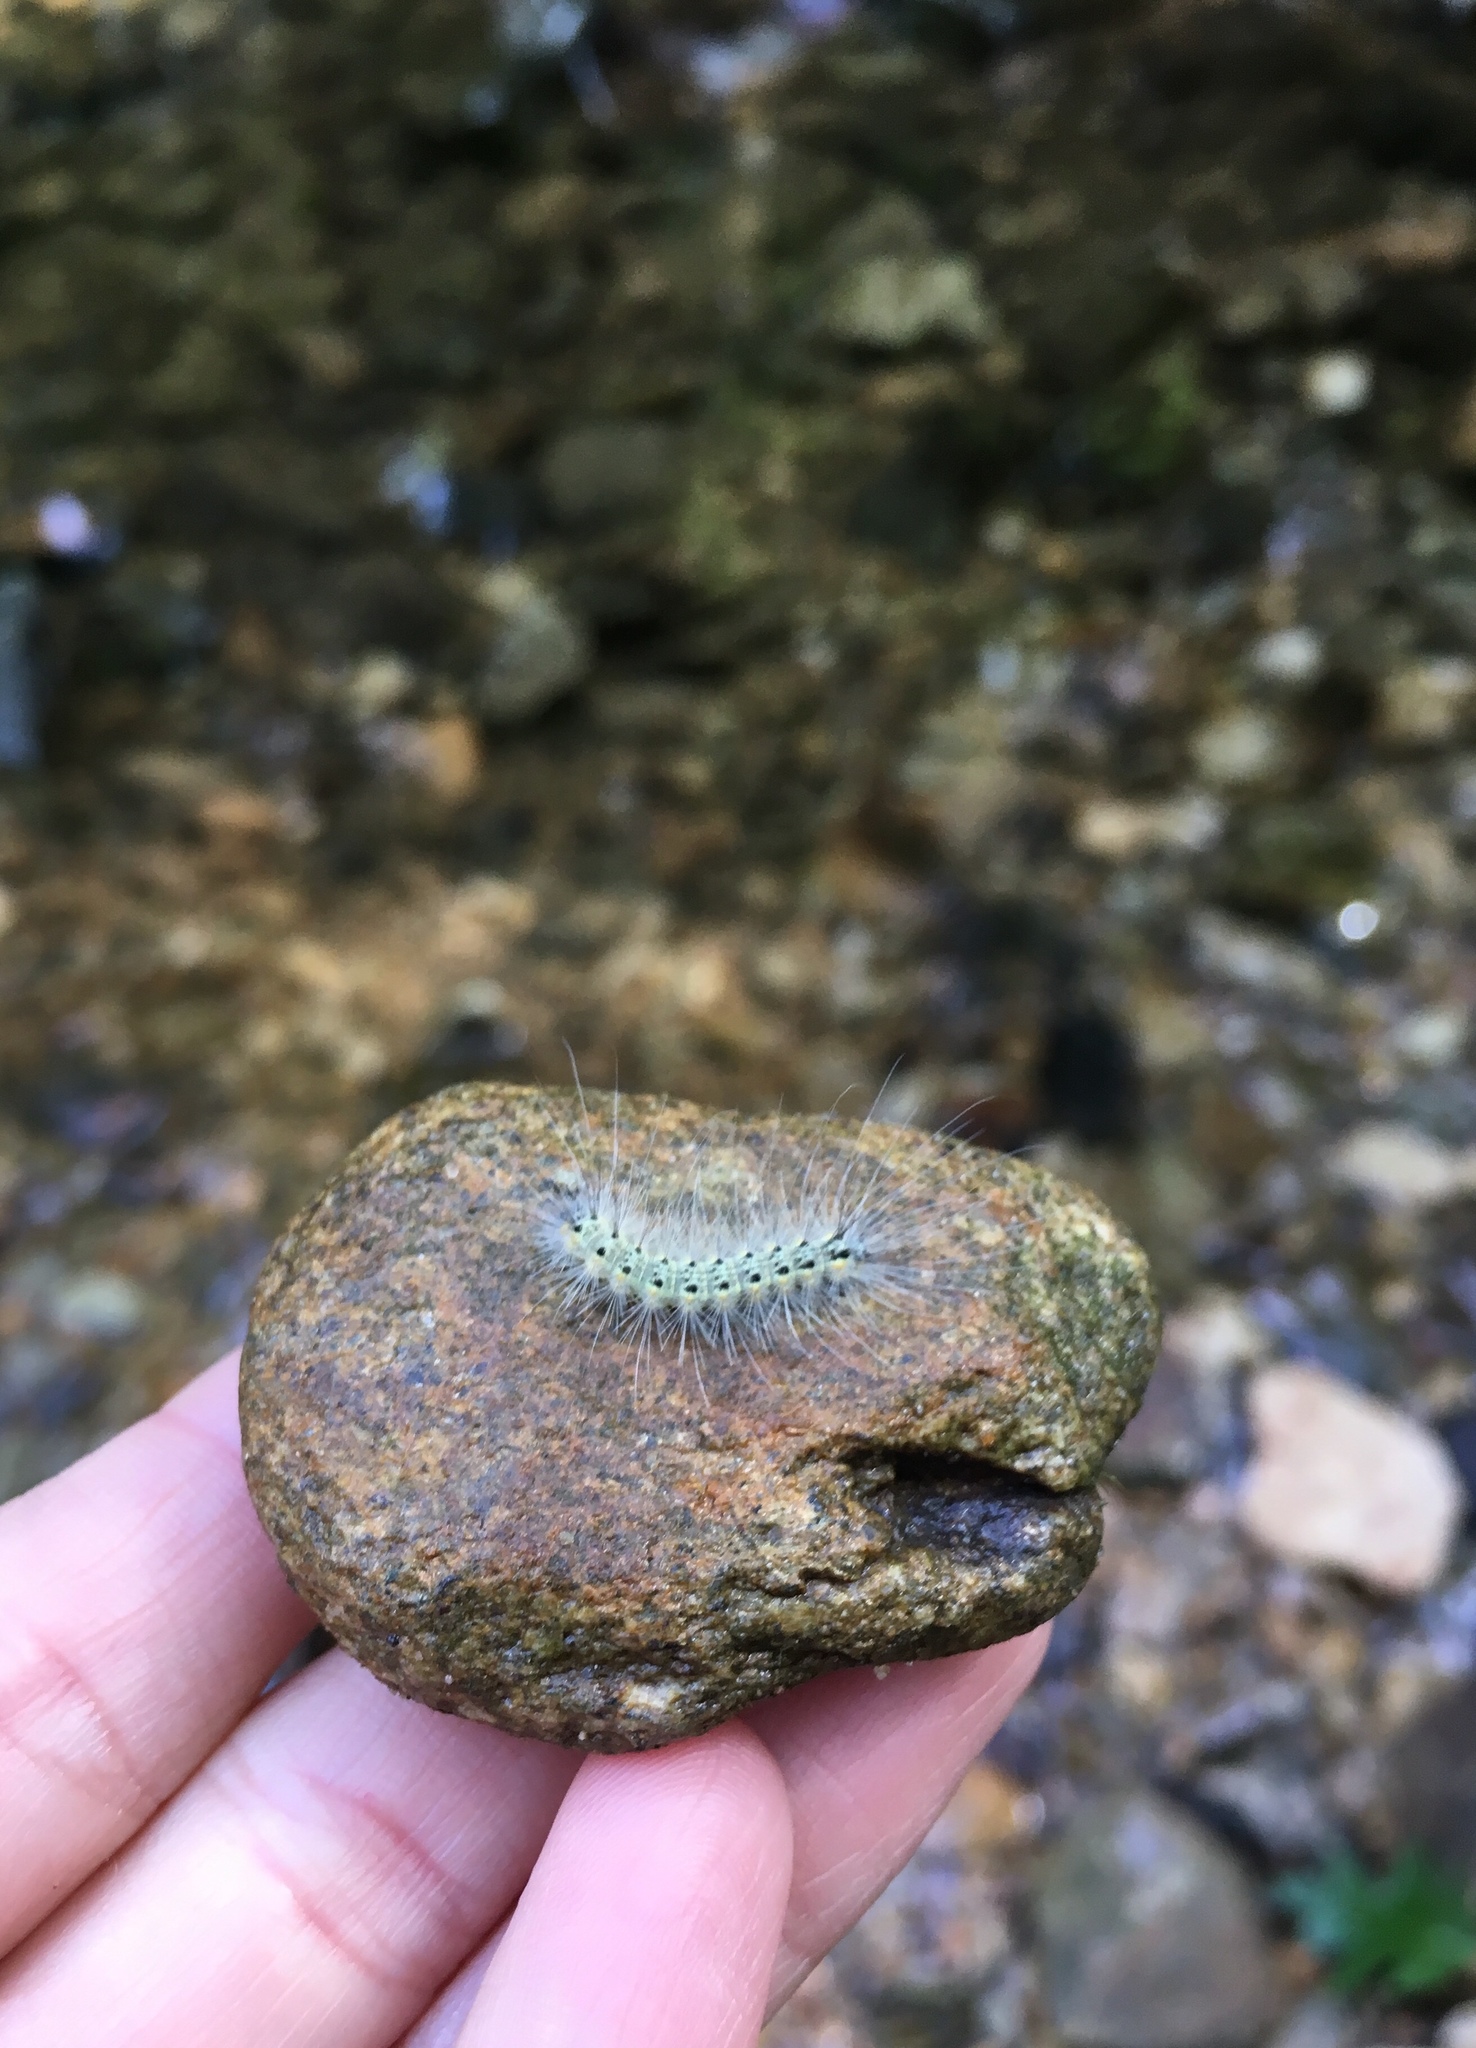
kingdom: Animalia
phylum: Arthropoda
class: Insecta
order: Lepidoptera
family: Erebidae
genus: Hyphantria
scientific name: Hyphantria cunea
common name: American white moth
